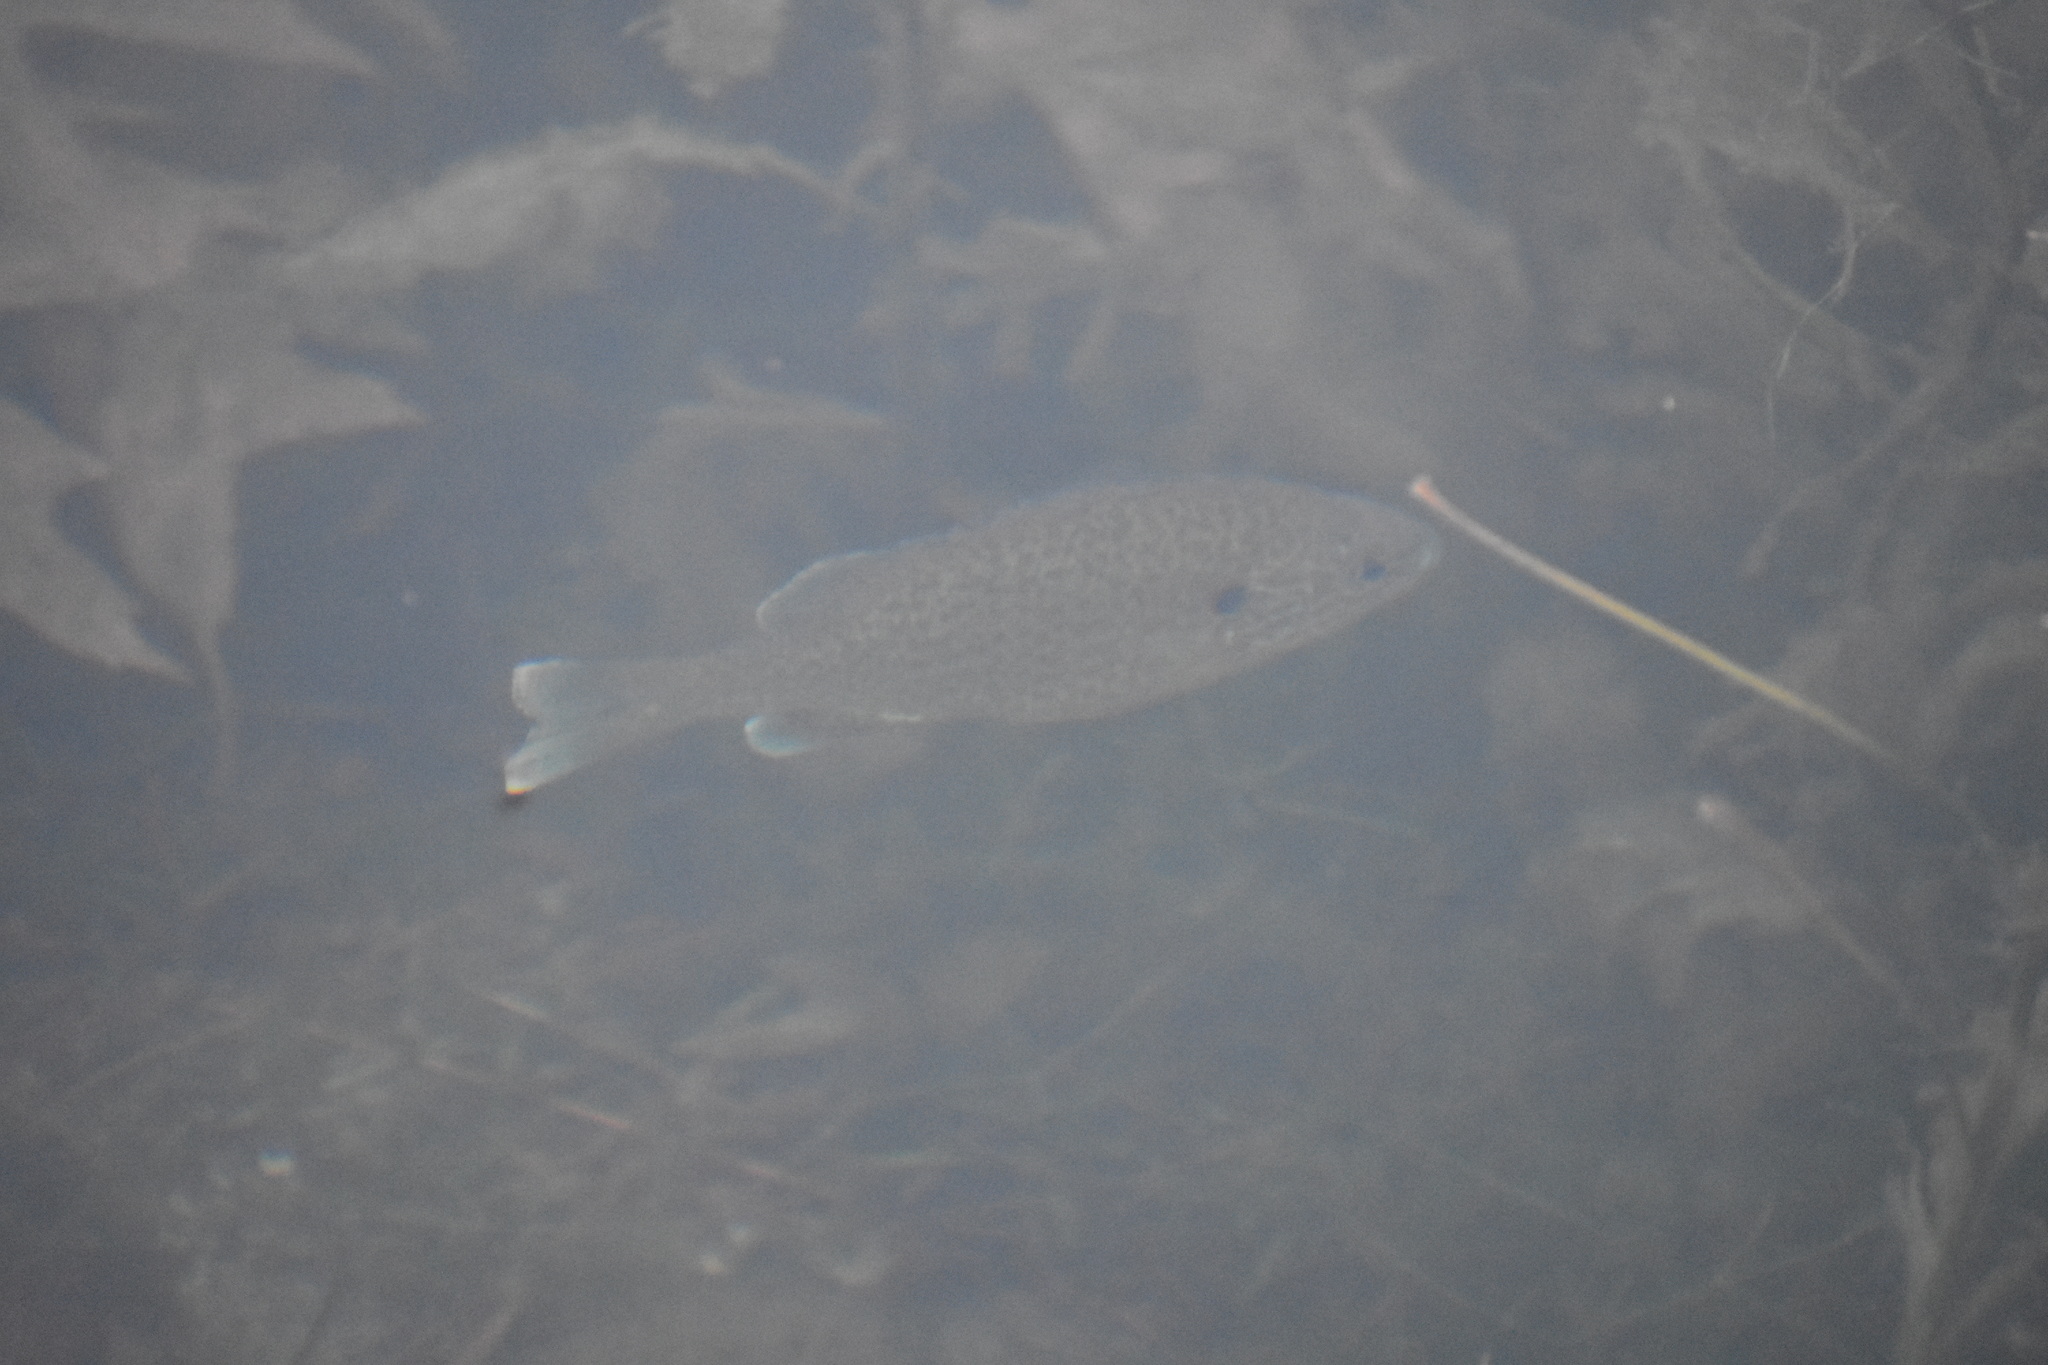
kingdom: Animalia
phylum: Chordata
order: Perciformes
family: Centrarchidae
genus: Lepomis
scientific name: Lepomis gibbosus
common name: Pumpkinseed
